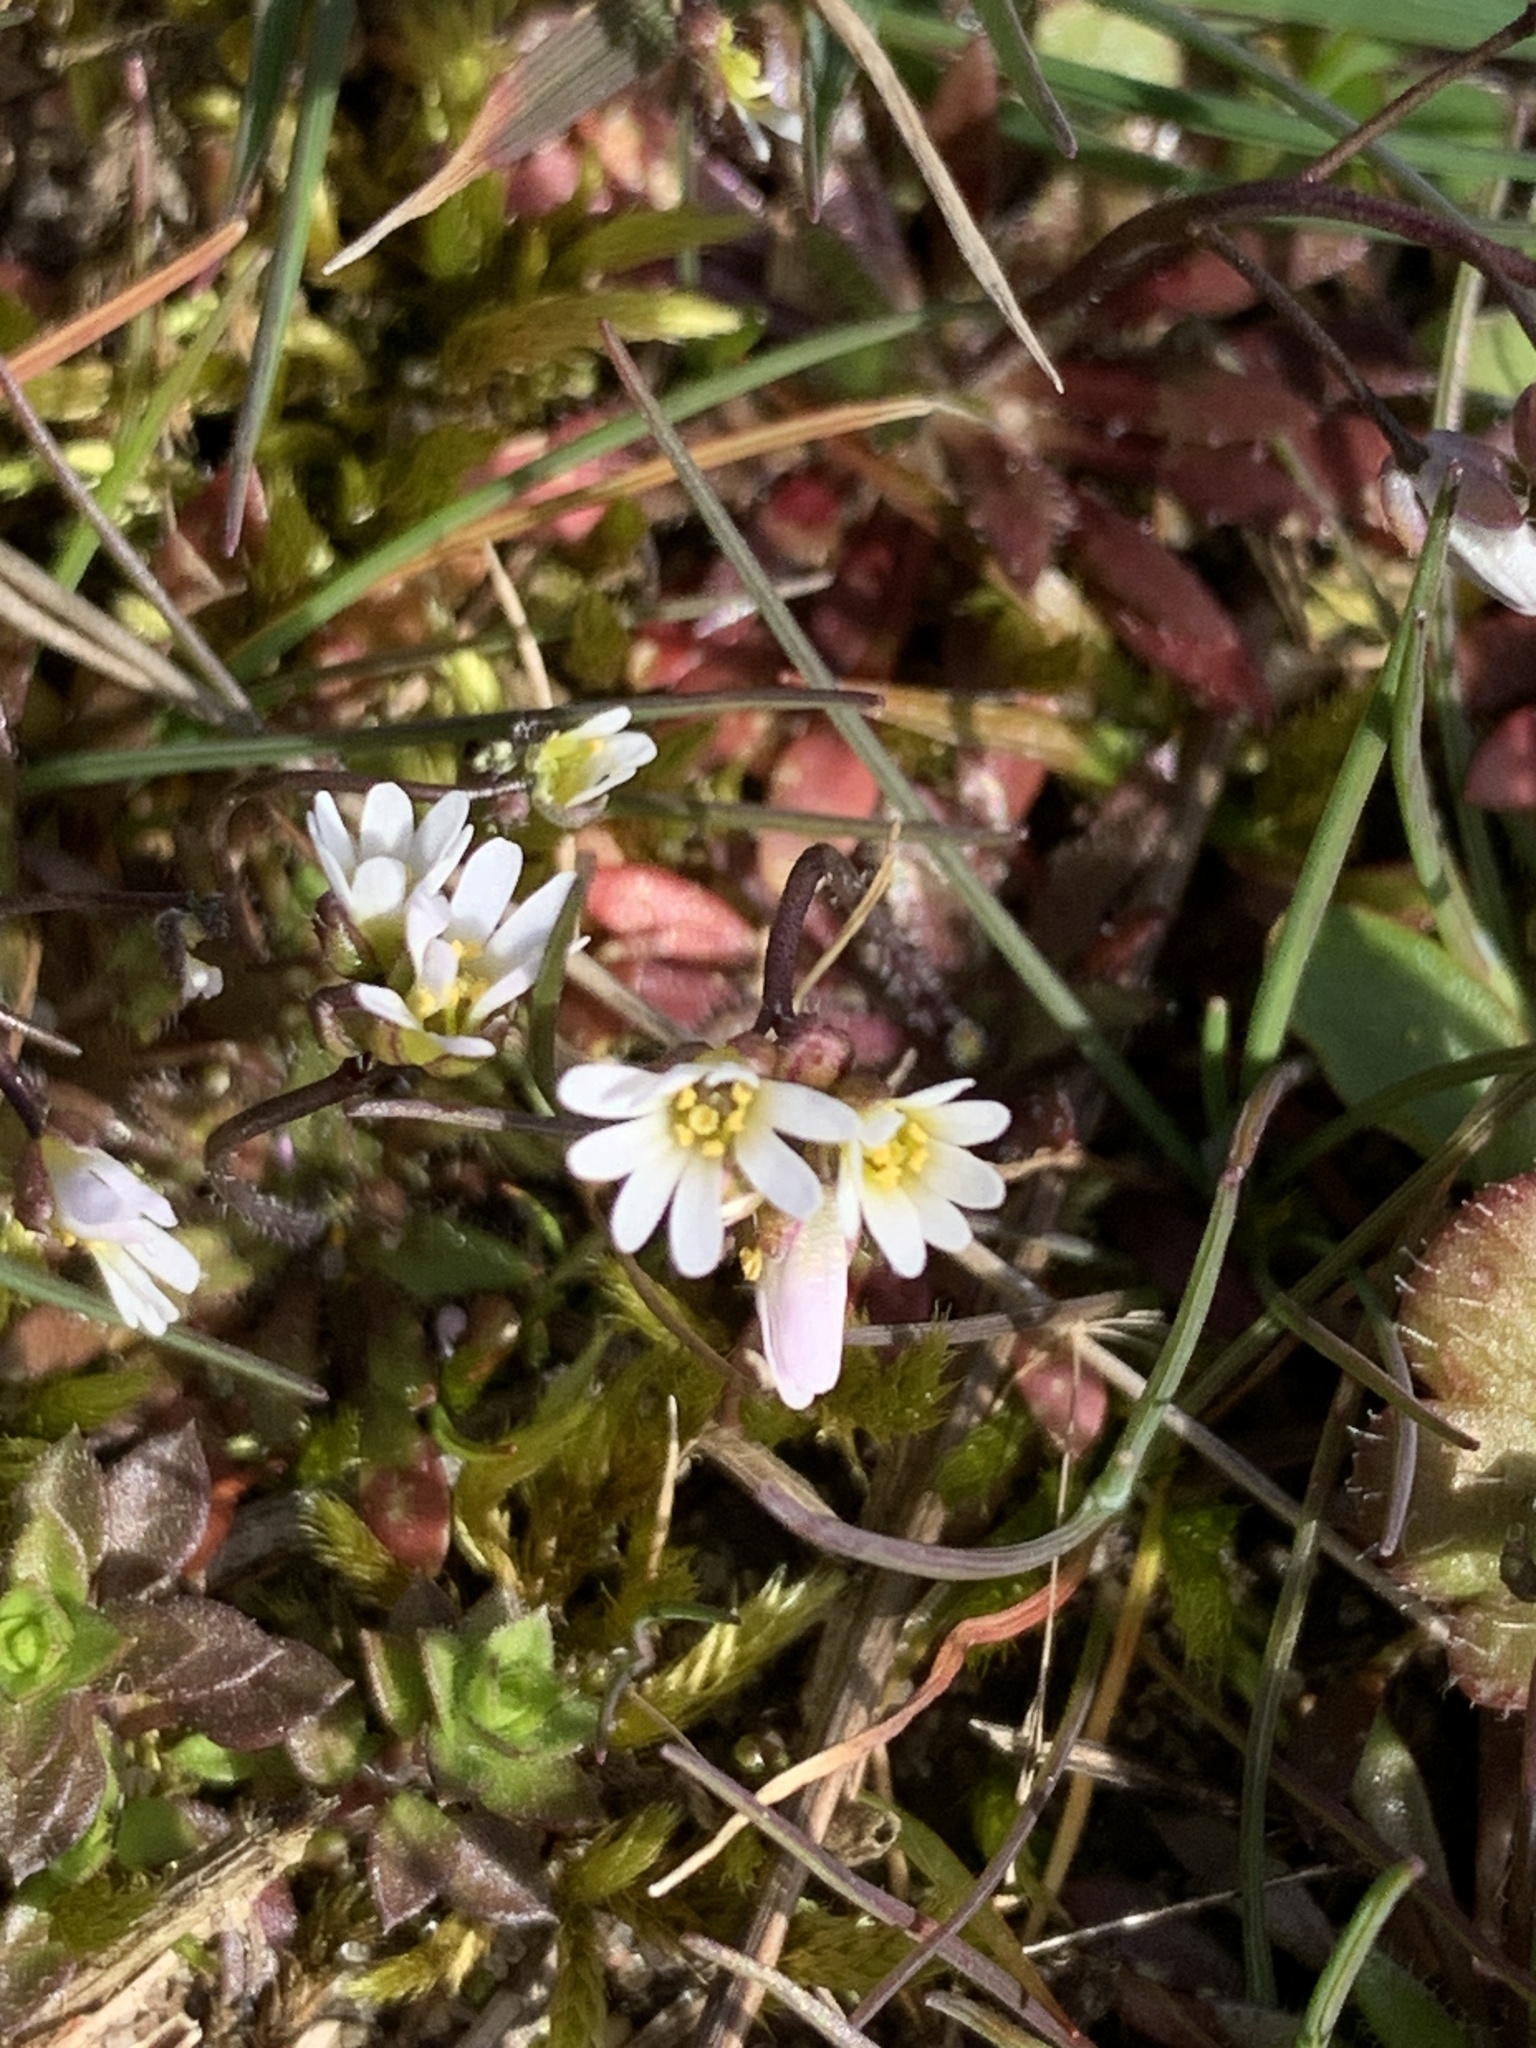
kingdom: Plantae
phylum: Tracheophyta
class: Magnoliopsida
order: Brassicales
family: Brassicaceae
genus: Draba
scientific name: Draba verna
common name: Spring draba
